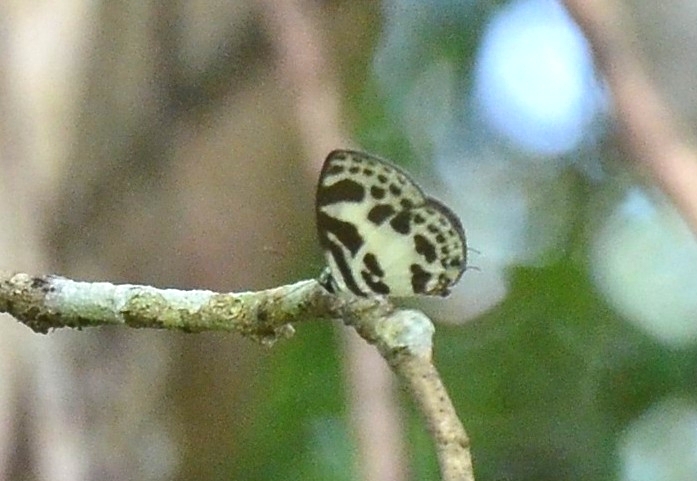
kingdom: Animalia
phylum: Arthropoda
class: Insecta
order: Lepidoptera
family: Lycaenidae
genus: Discolampa
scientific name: Discolampa ethion
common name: Banded blue pierrot
